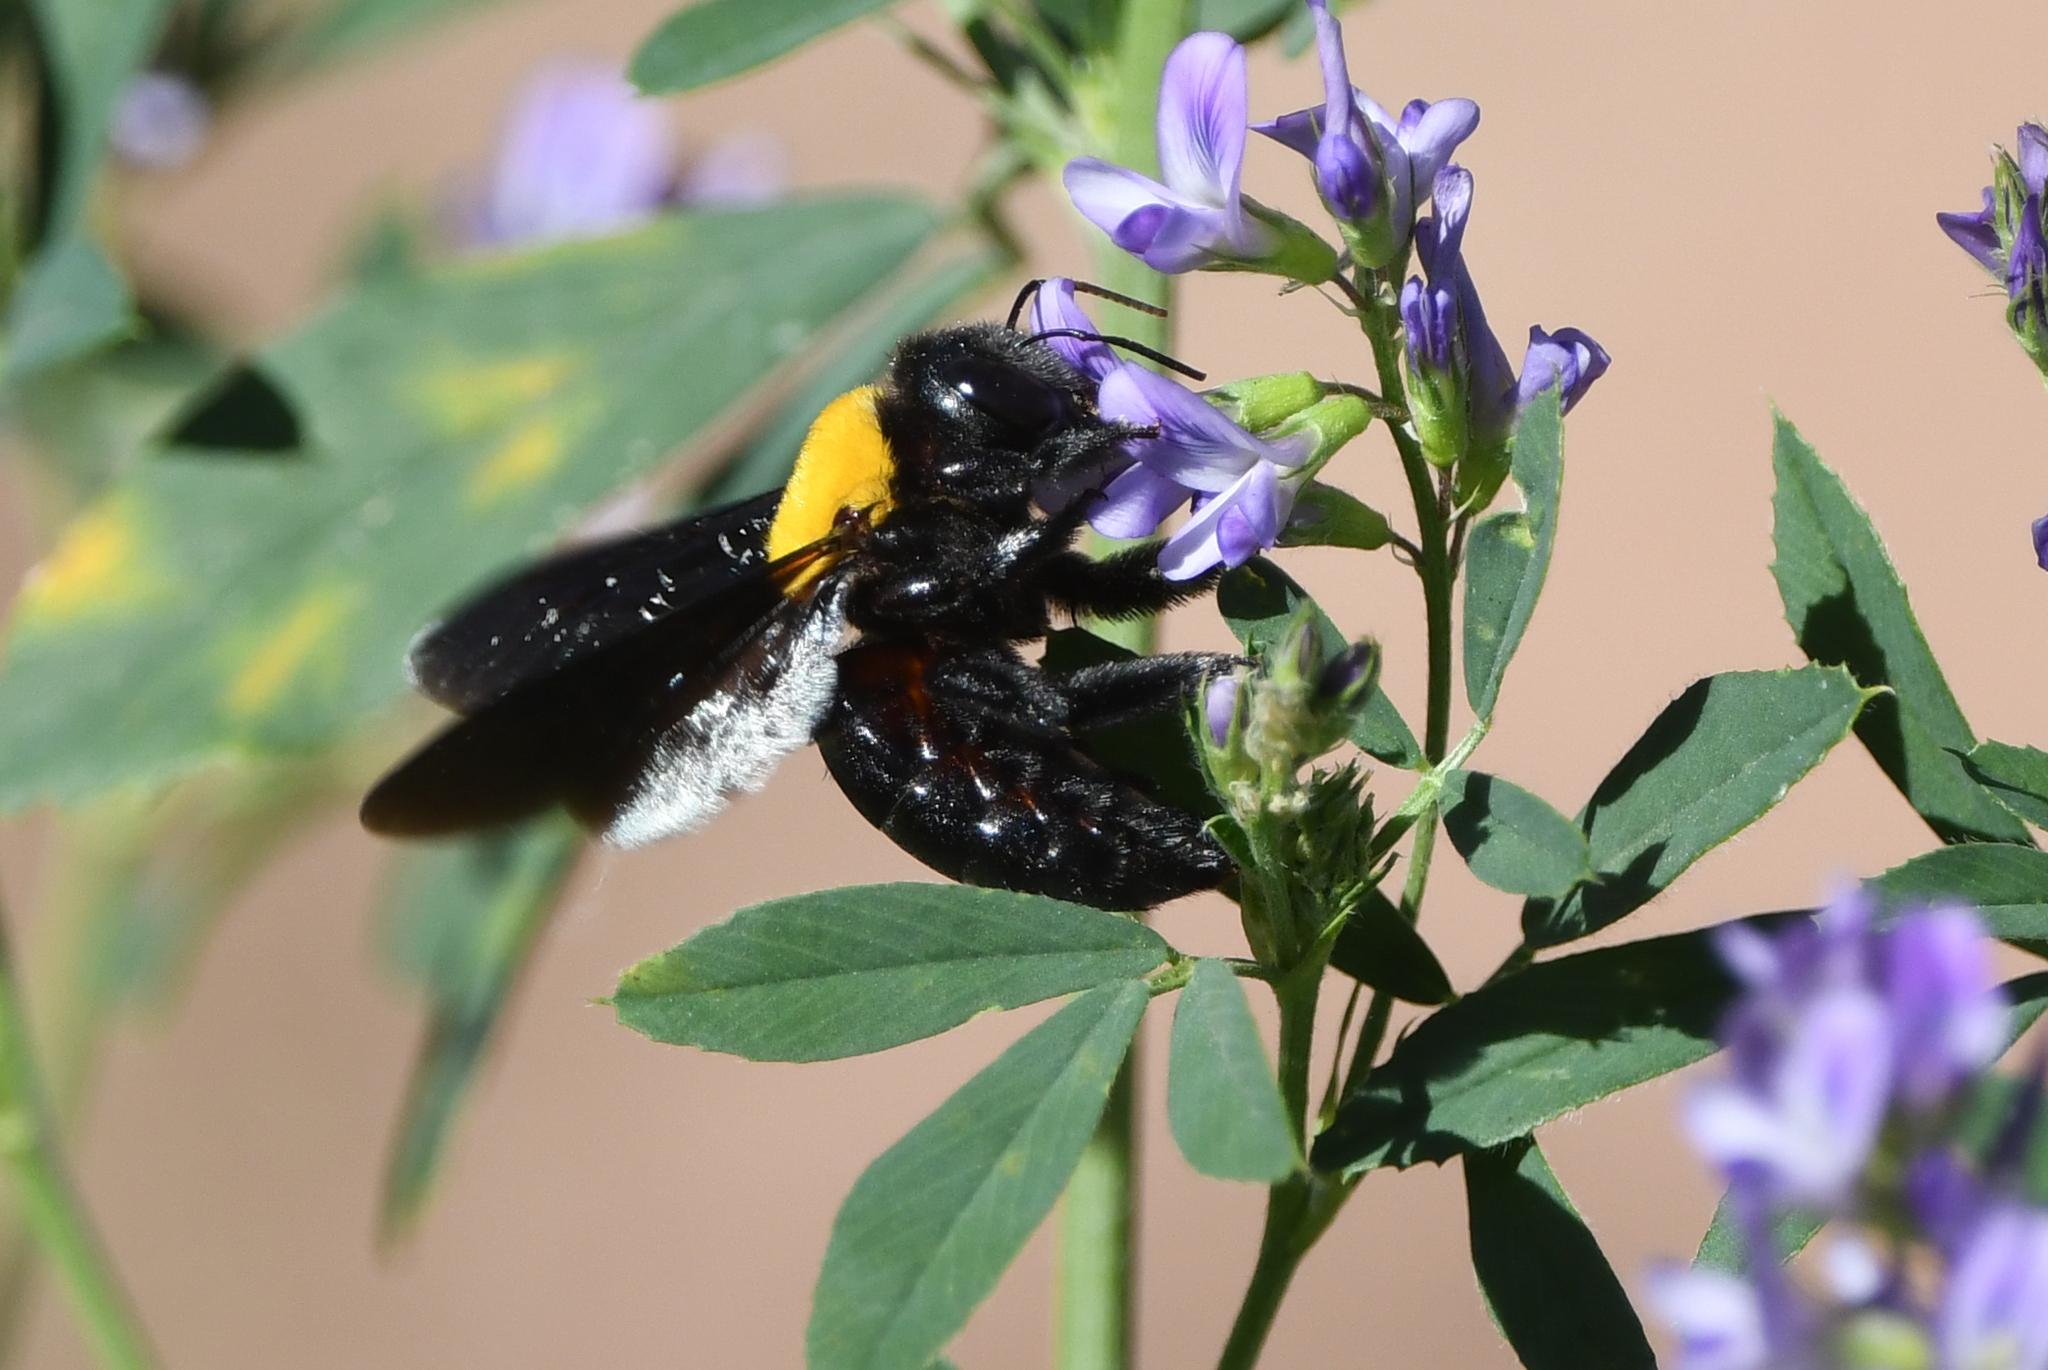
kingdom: Animalia
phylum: Arthropoda
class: Insecta
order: Hymenoptera
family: Apidae
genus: Xylocopa
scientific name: Xylocopa pubescens
